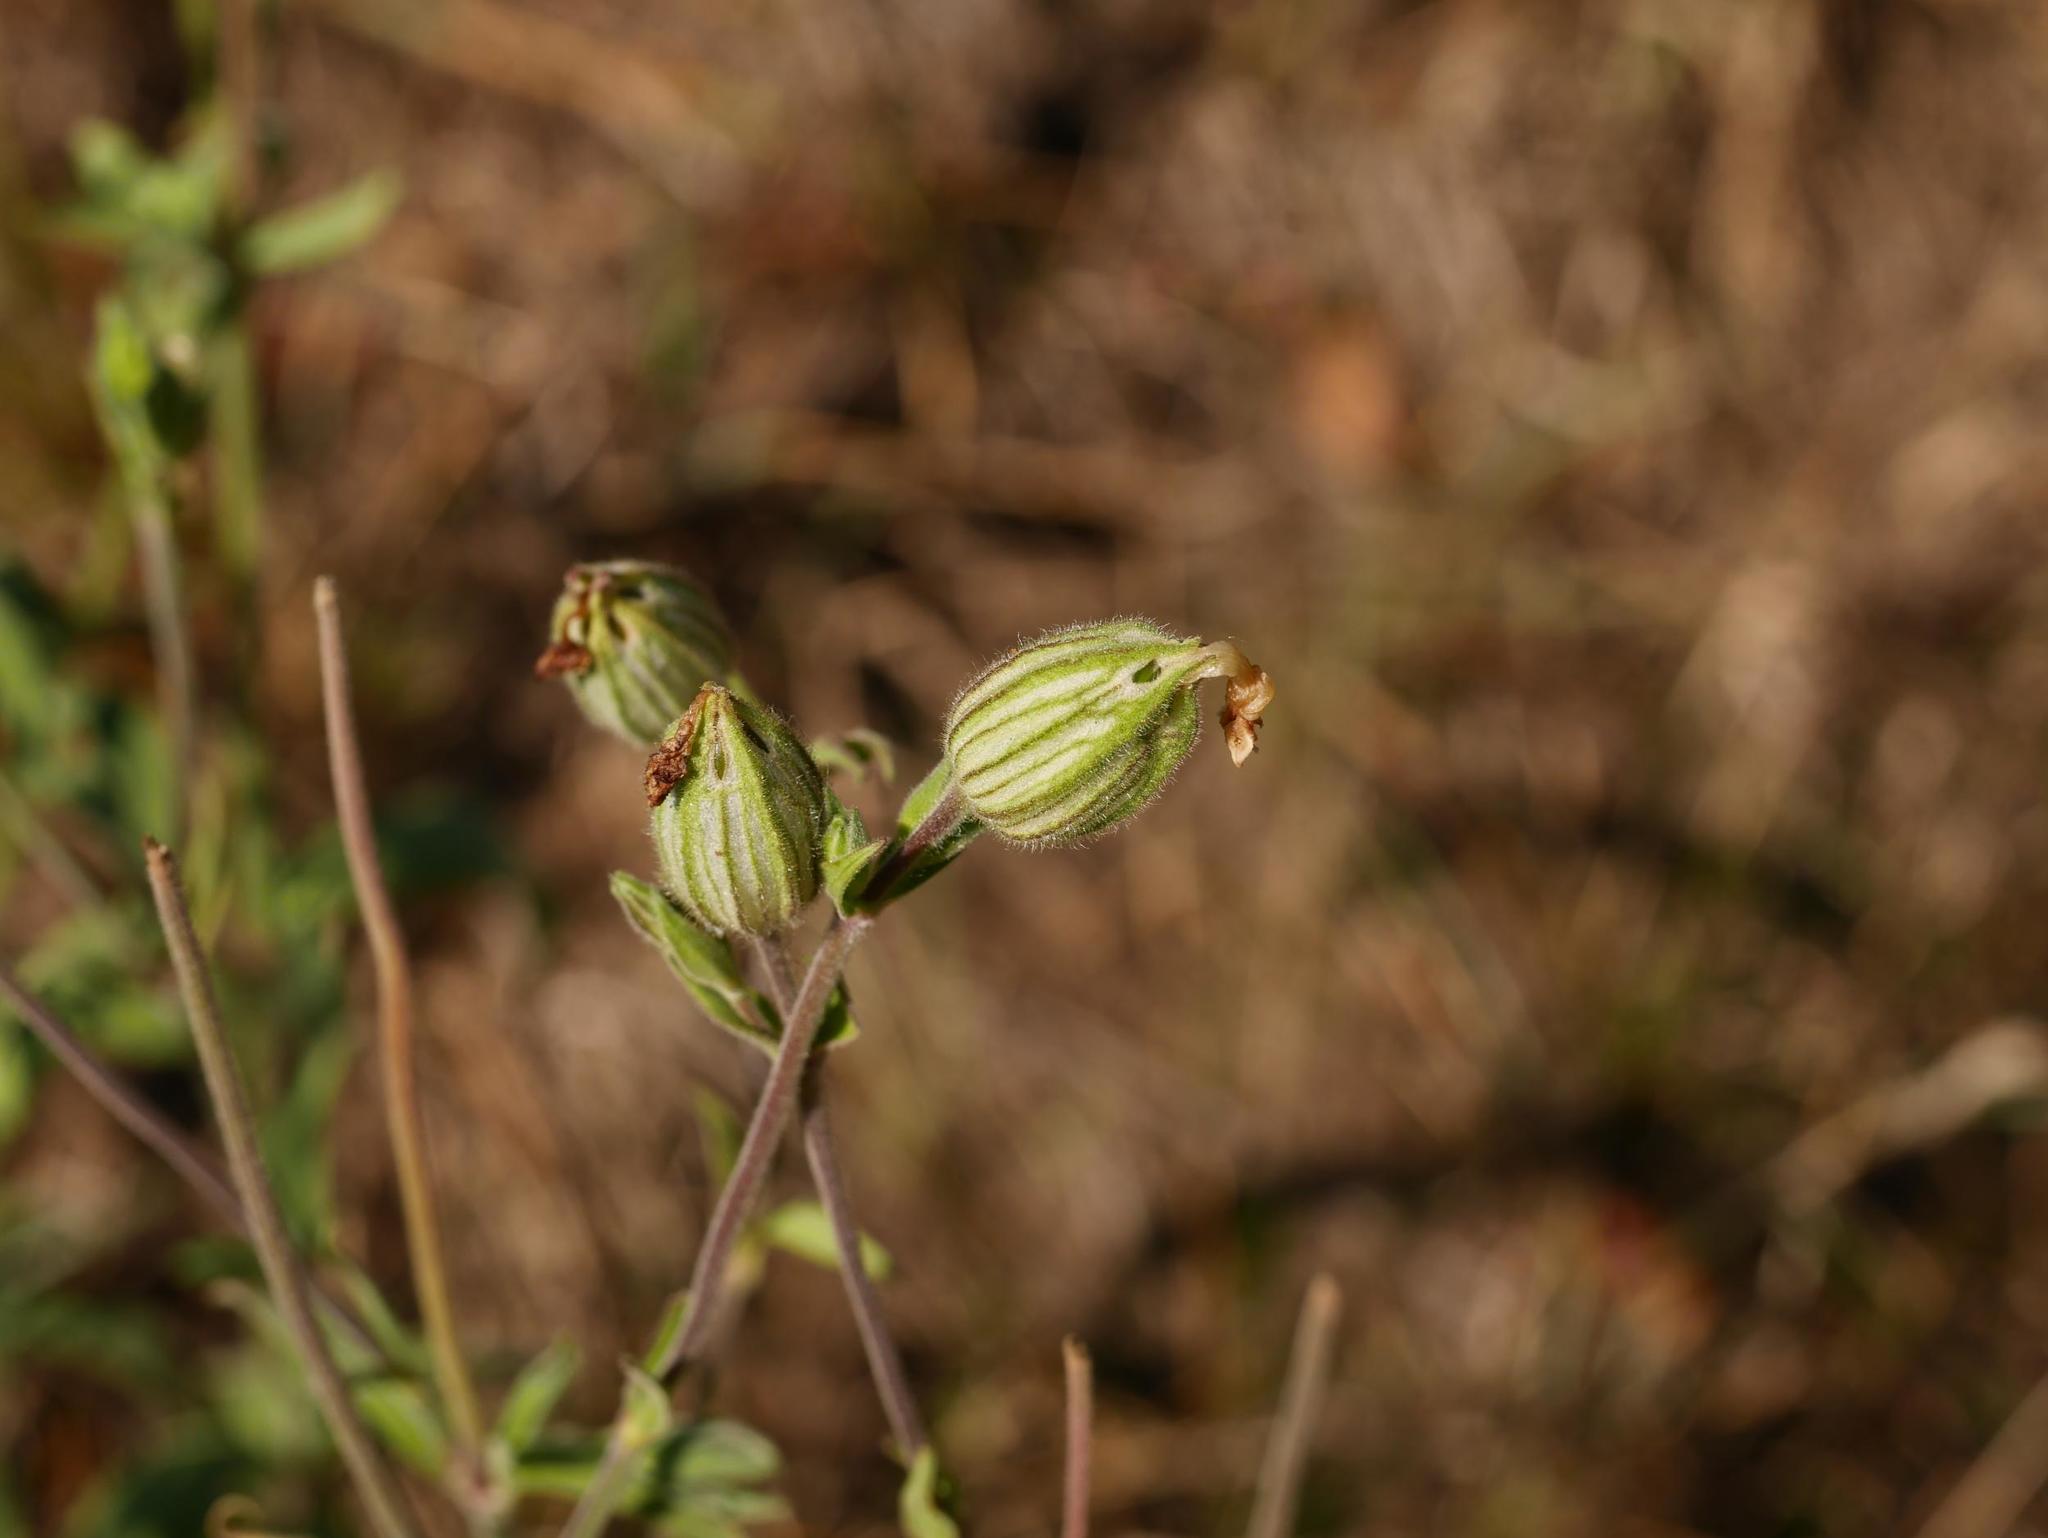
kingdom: Plantae
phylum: Tracheophyta
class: Magnoliopsida
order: Caryophyllales
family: Caryophyllaceae
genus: Silene
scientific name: Silene latifolia
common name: White campion
